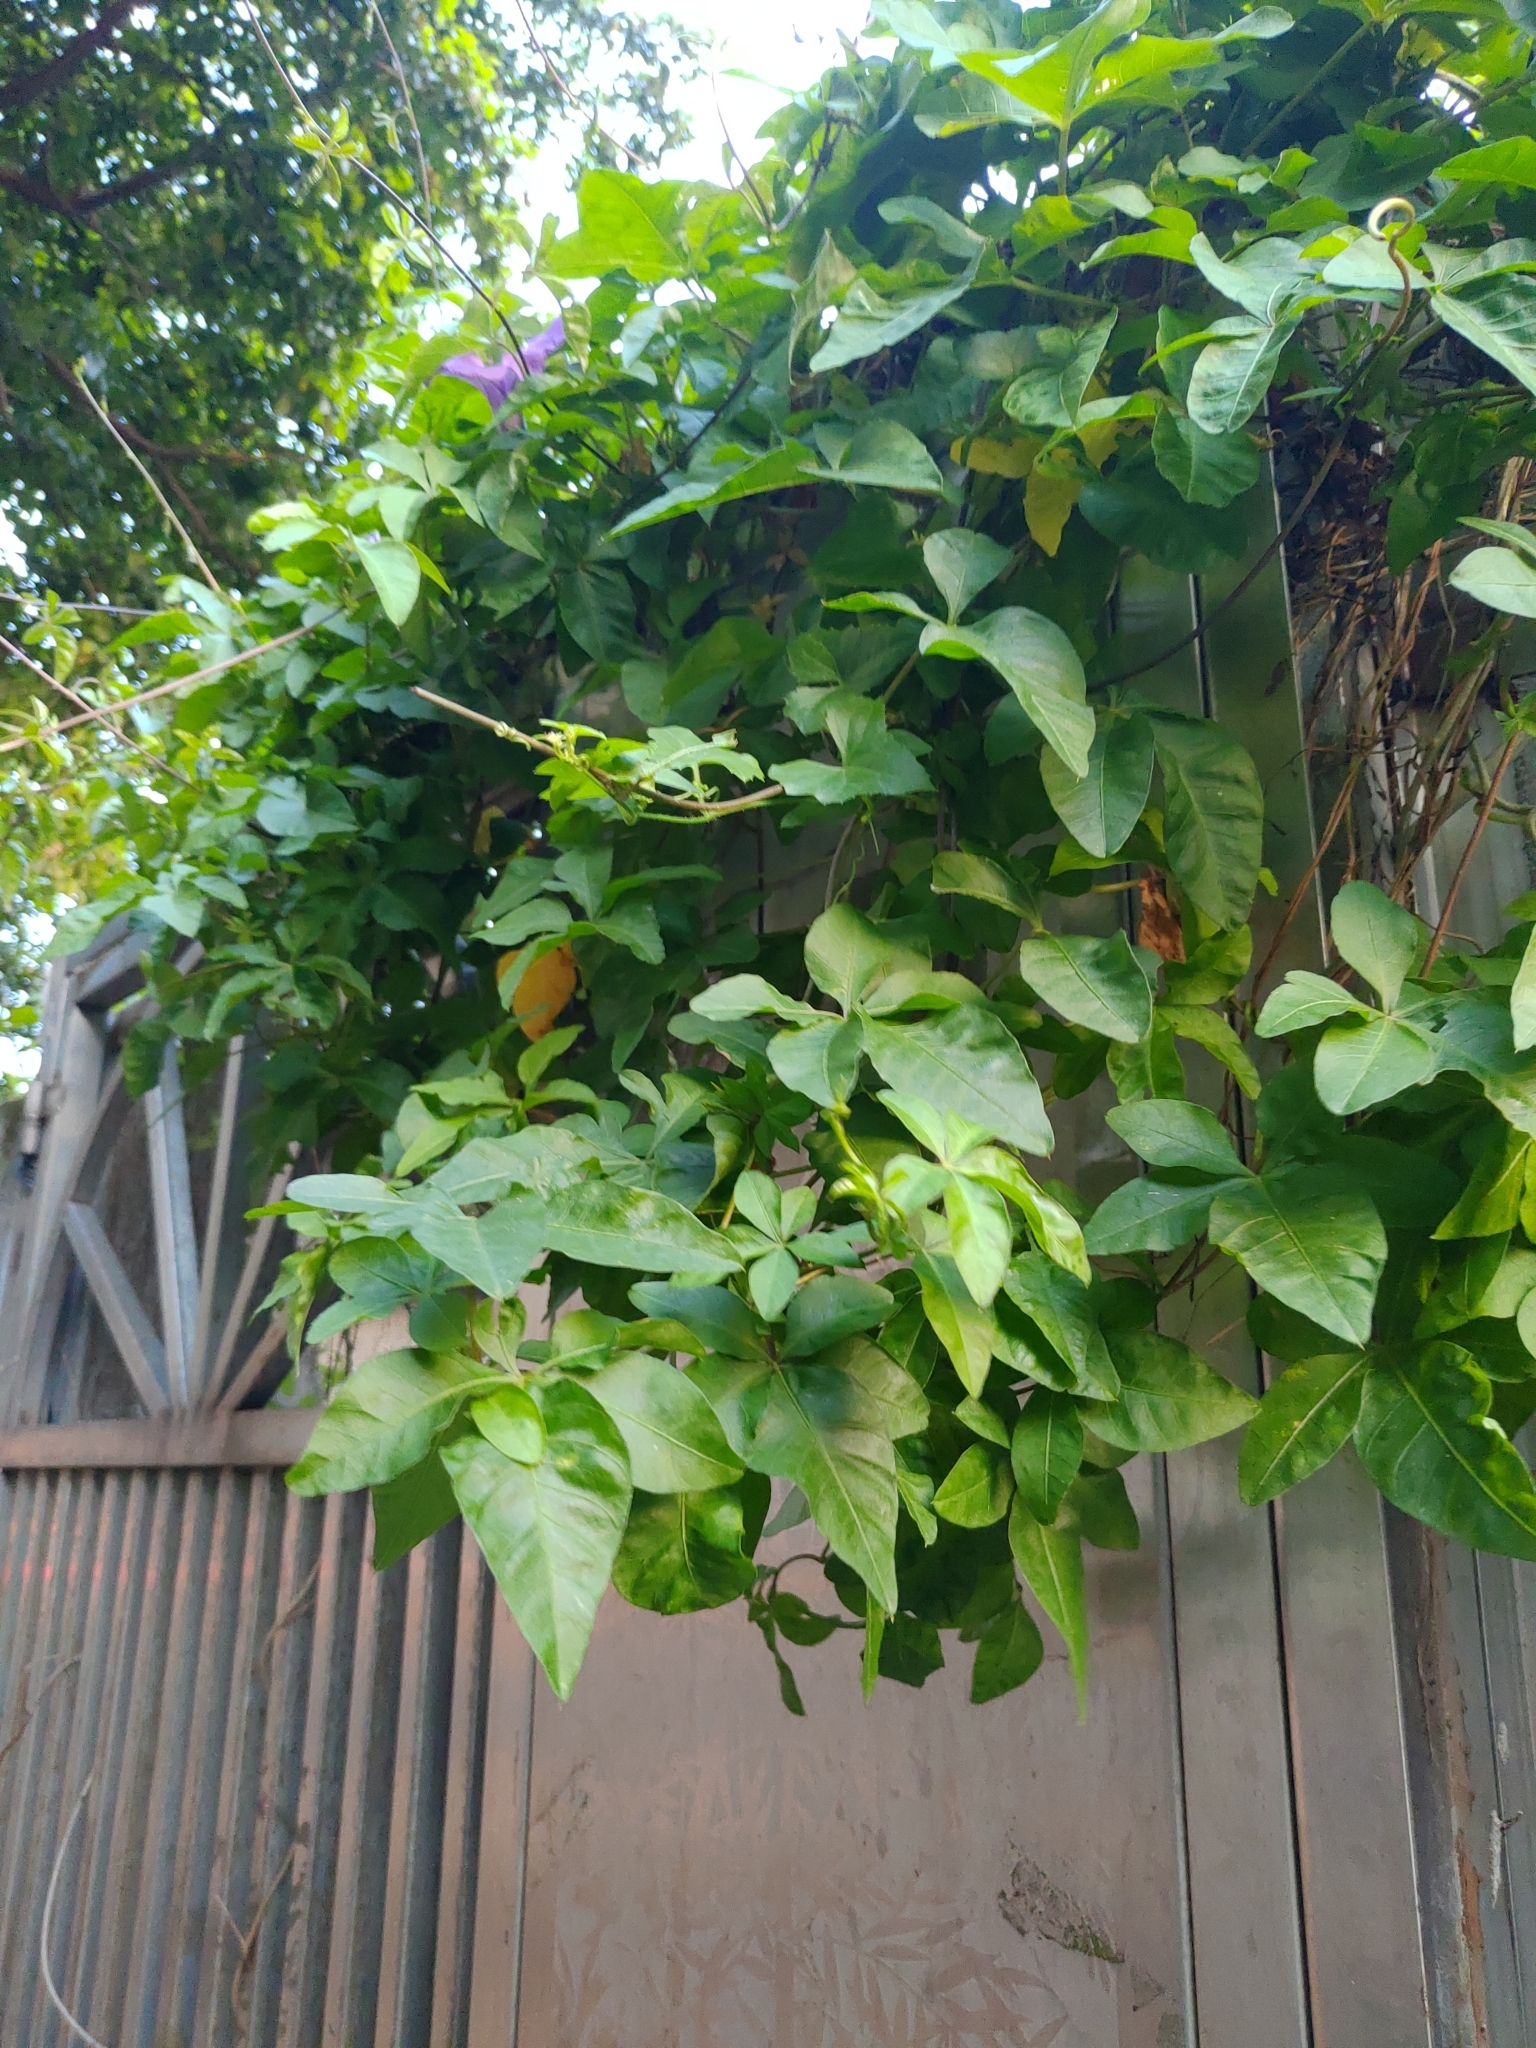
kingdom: Plantae
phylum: Tracheophyta
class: Magnoliopsida
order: Solanales
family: Convolvulaceae
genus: Ipomoea
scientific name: Ipomoea cairica
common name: Mile a minute vine
